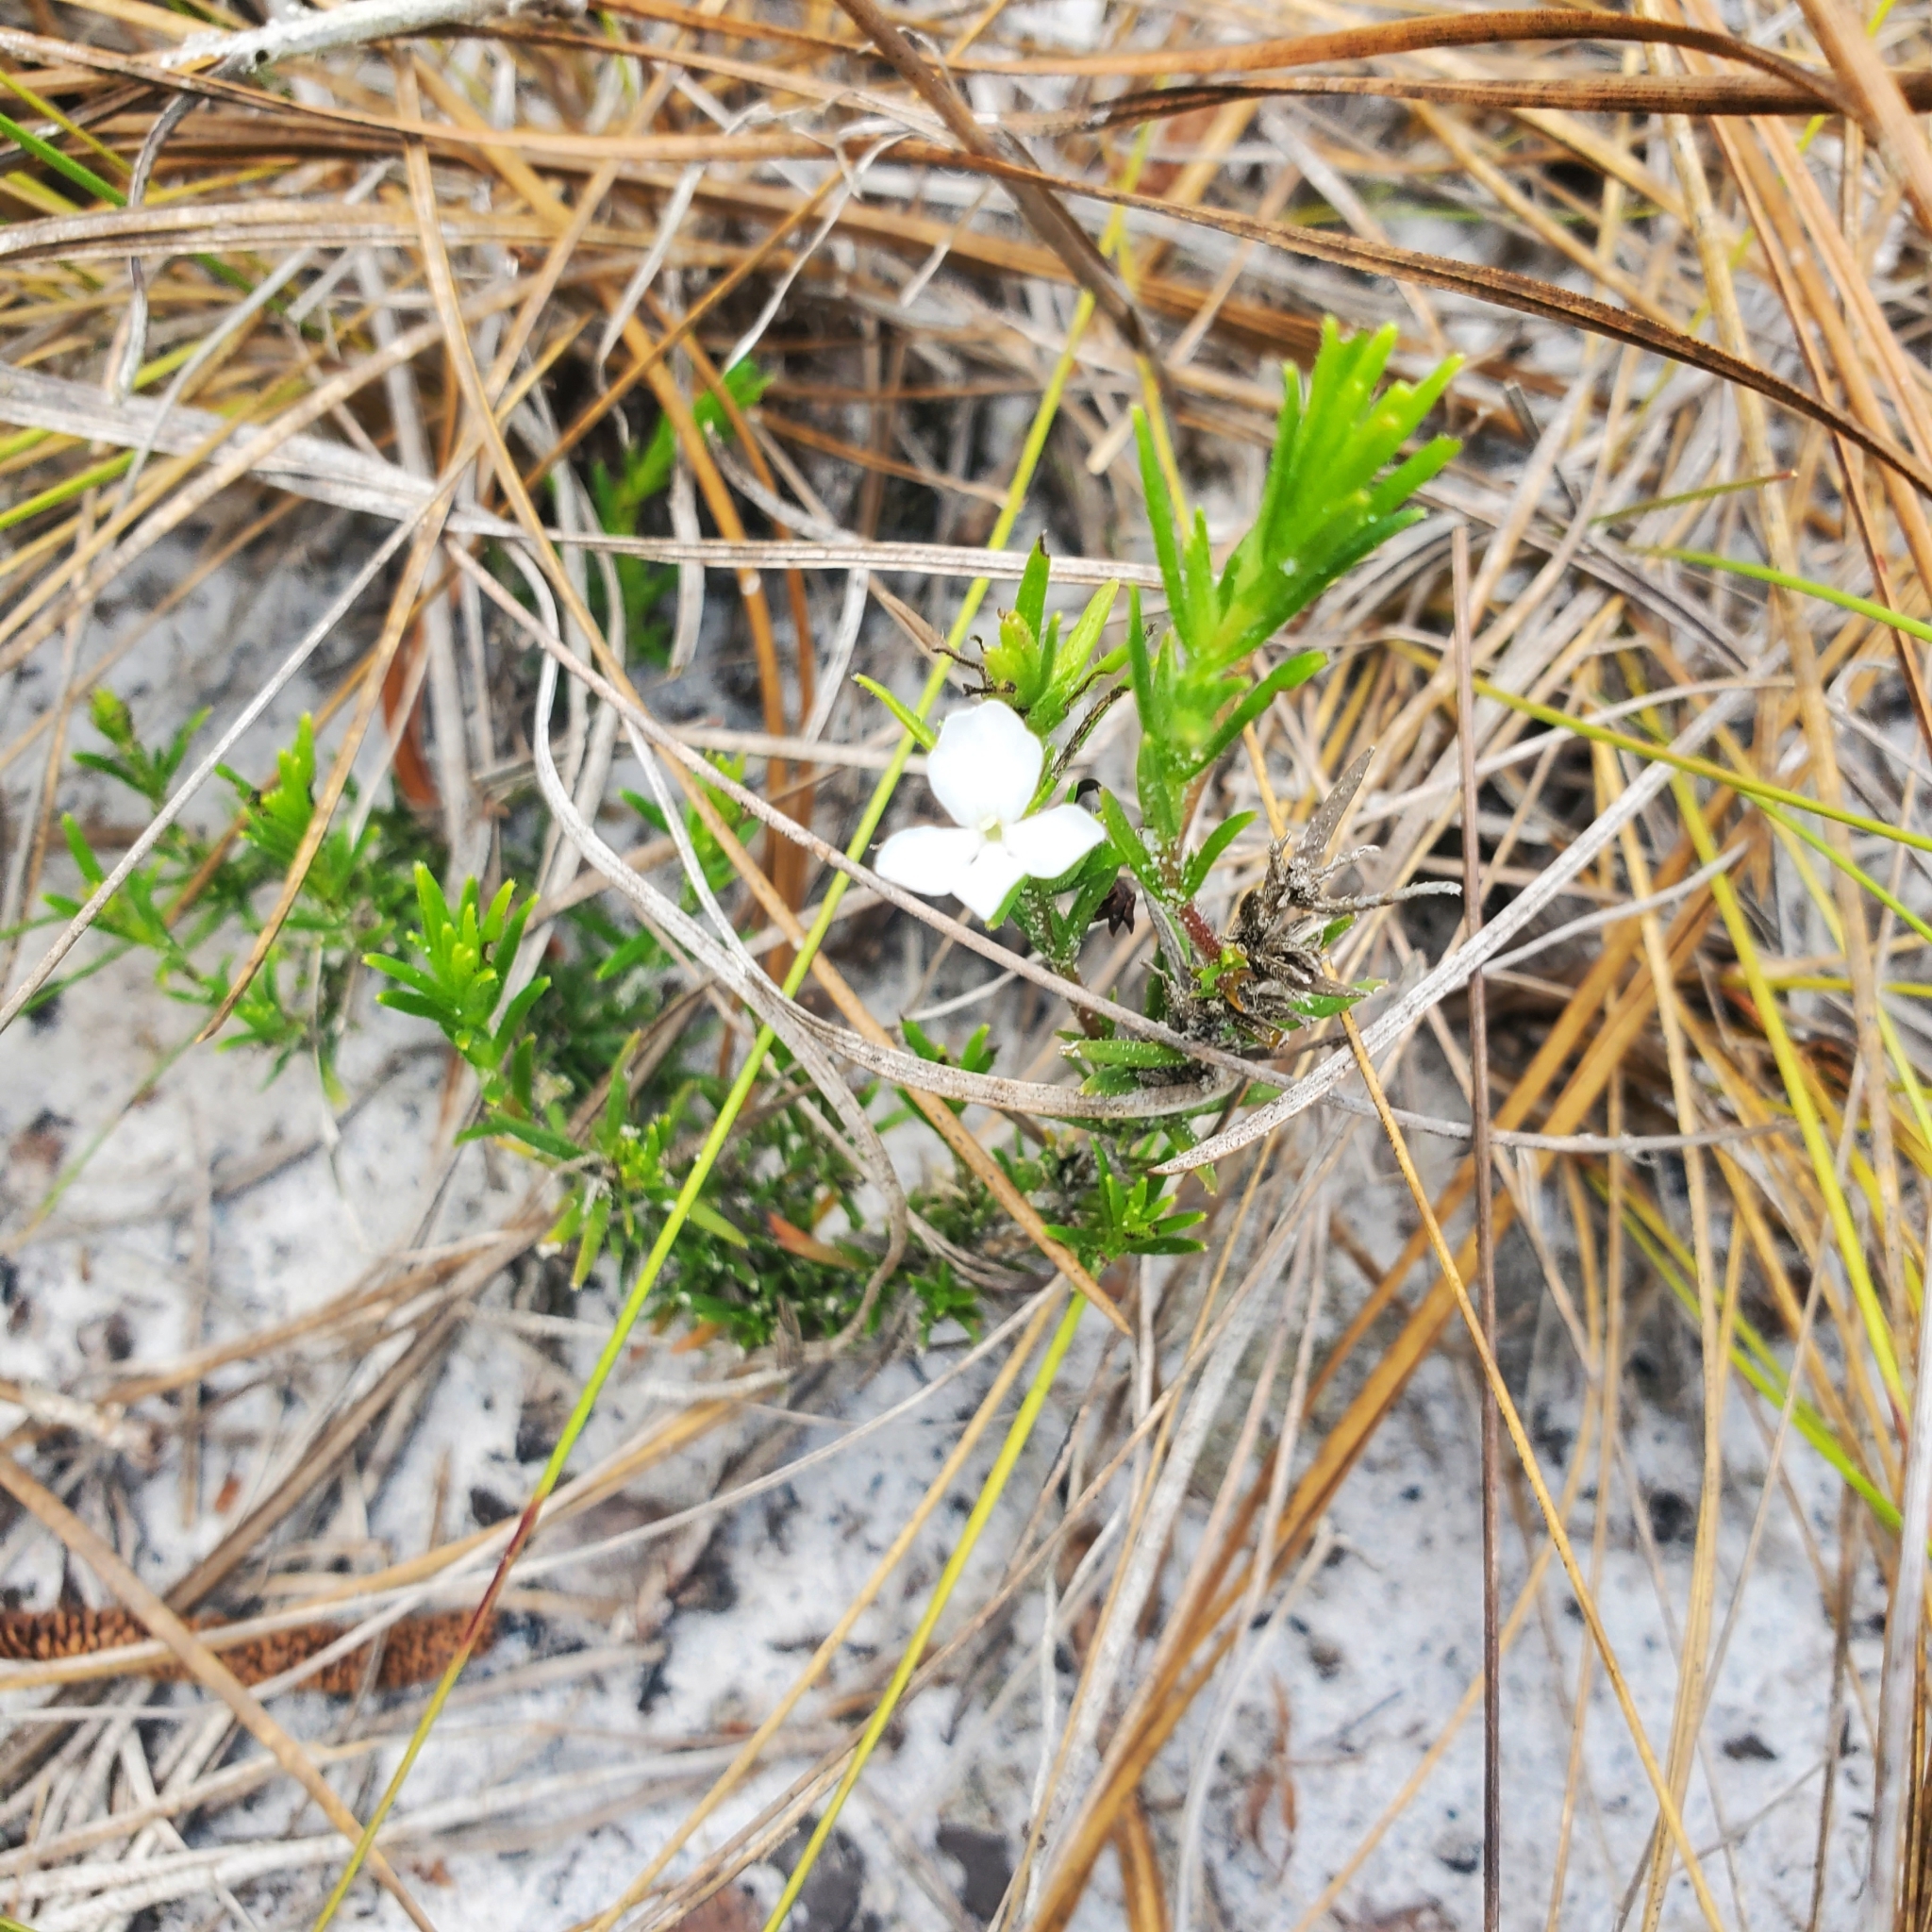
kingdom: Plantae
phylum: Tracheophyta
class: Magnoliopsida
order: Lamiales
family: Plantaginaceae
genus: Gratiola
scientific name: Gratiola hispida
